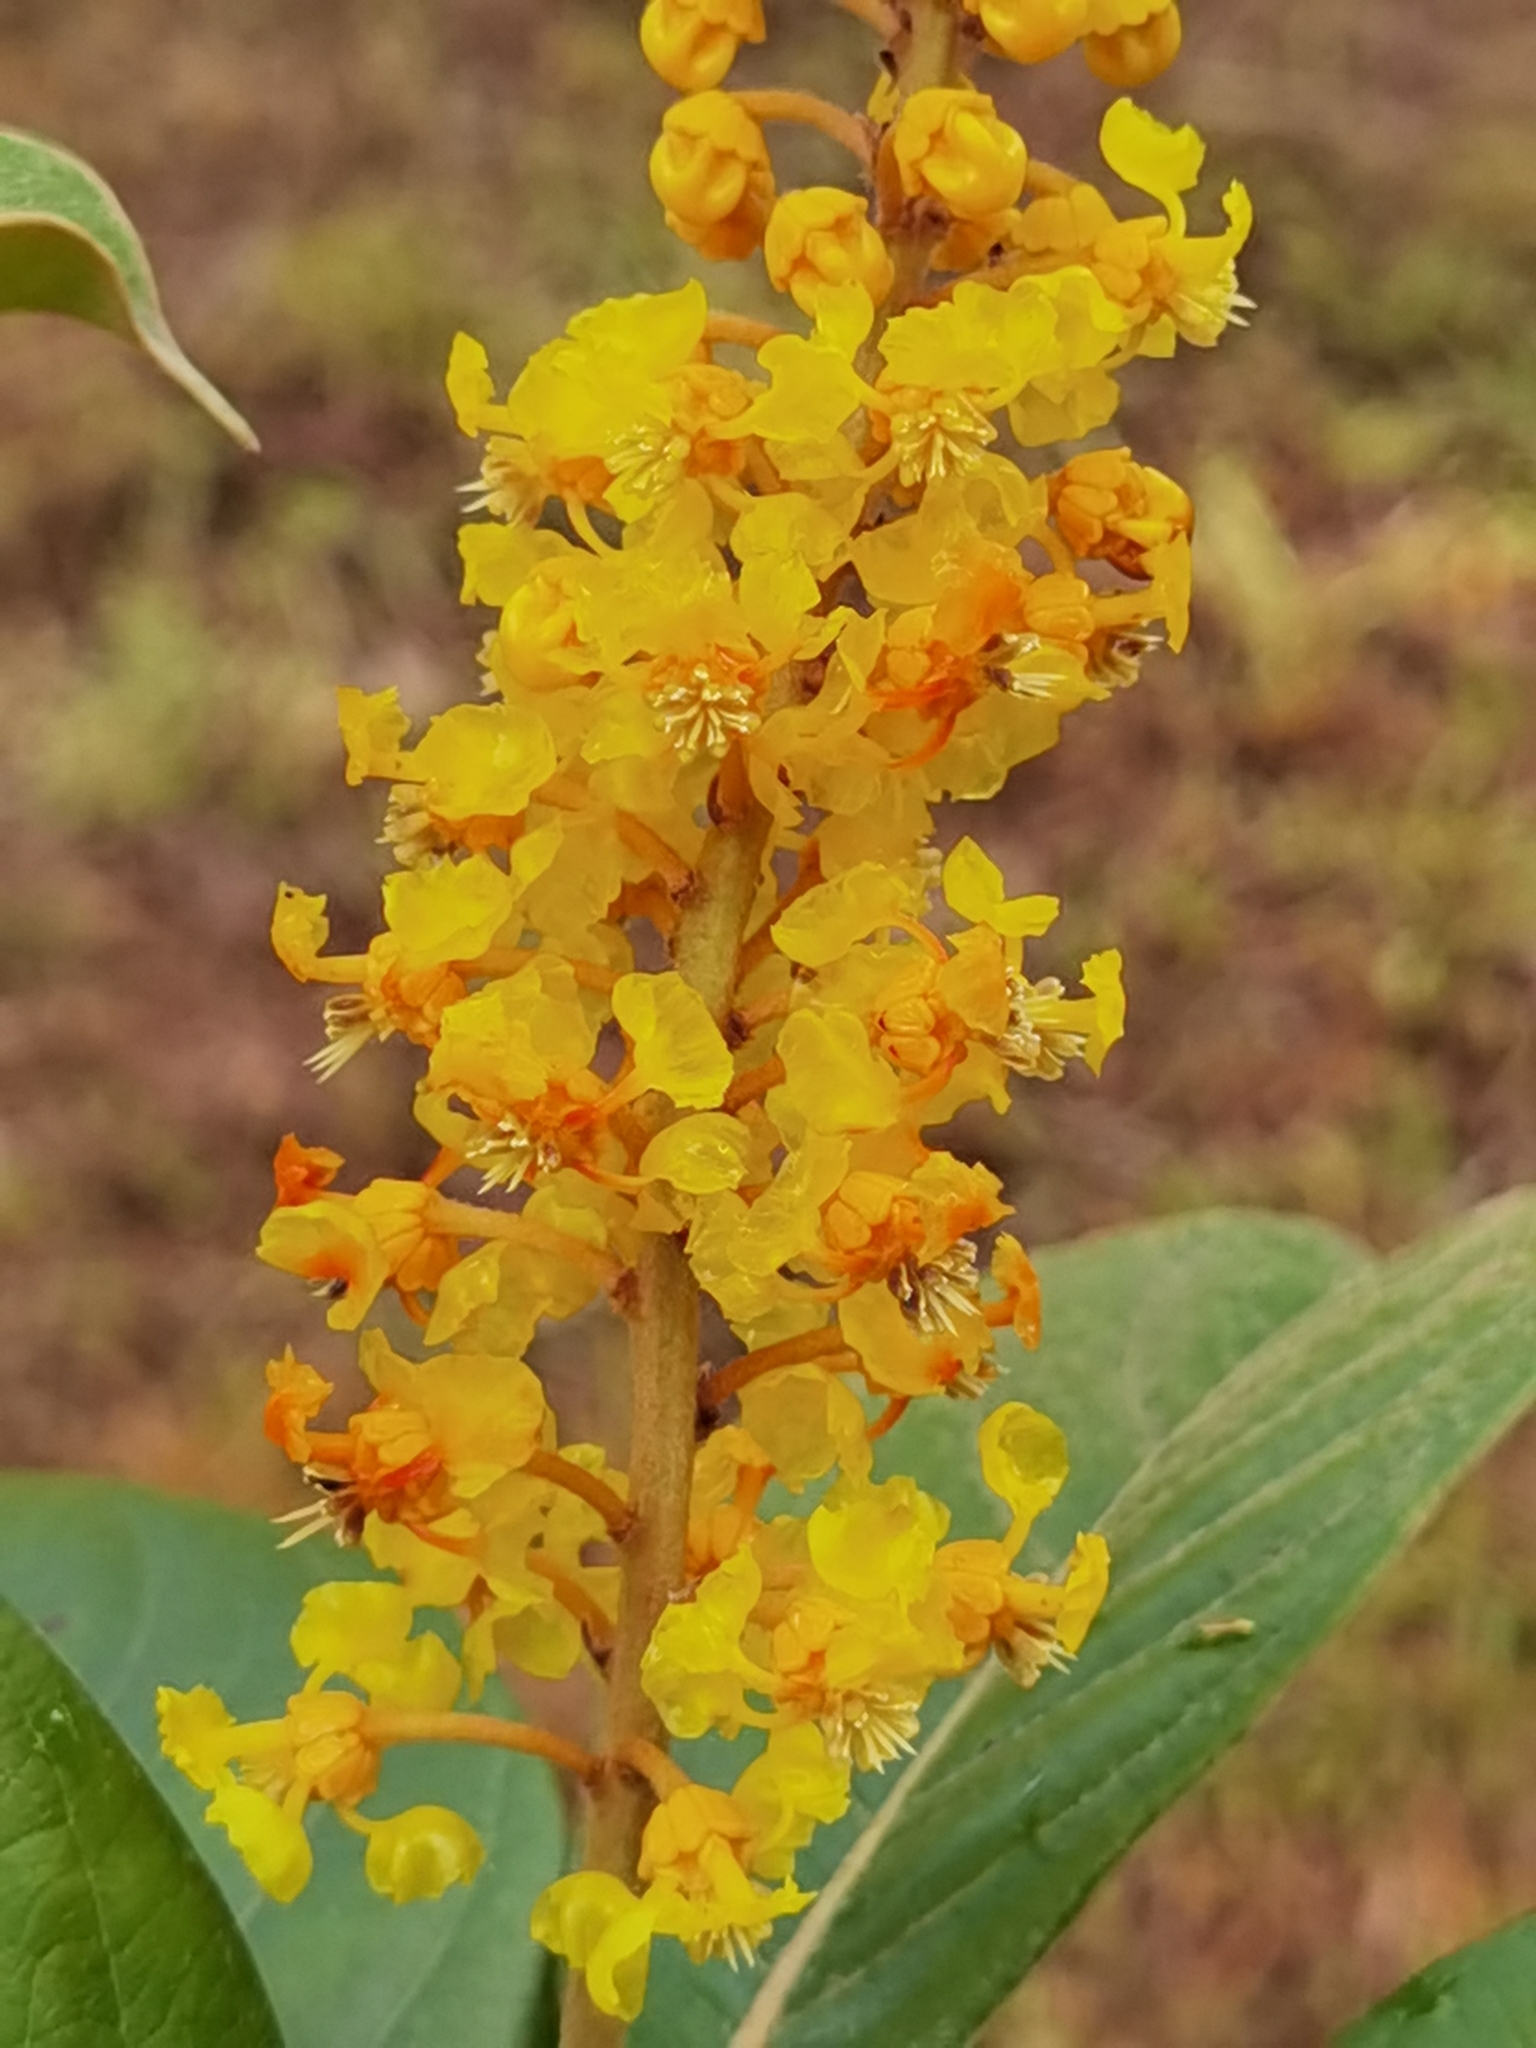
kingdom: Plantae
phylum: Tracheophyta
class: Magnoliopsida
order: Malpighiales
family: Malpighiaceae
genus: Byrsonima
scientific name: Byrsonima crassifolia
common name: Golden spoon
